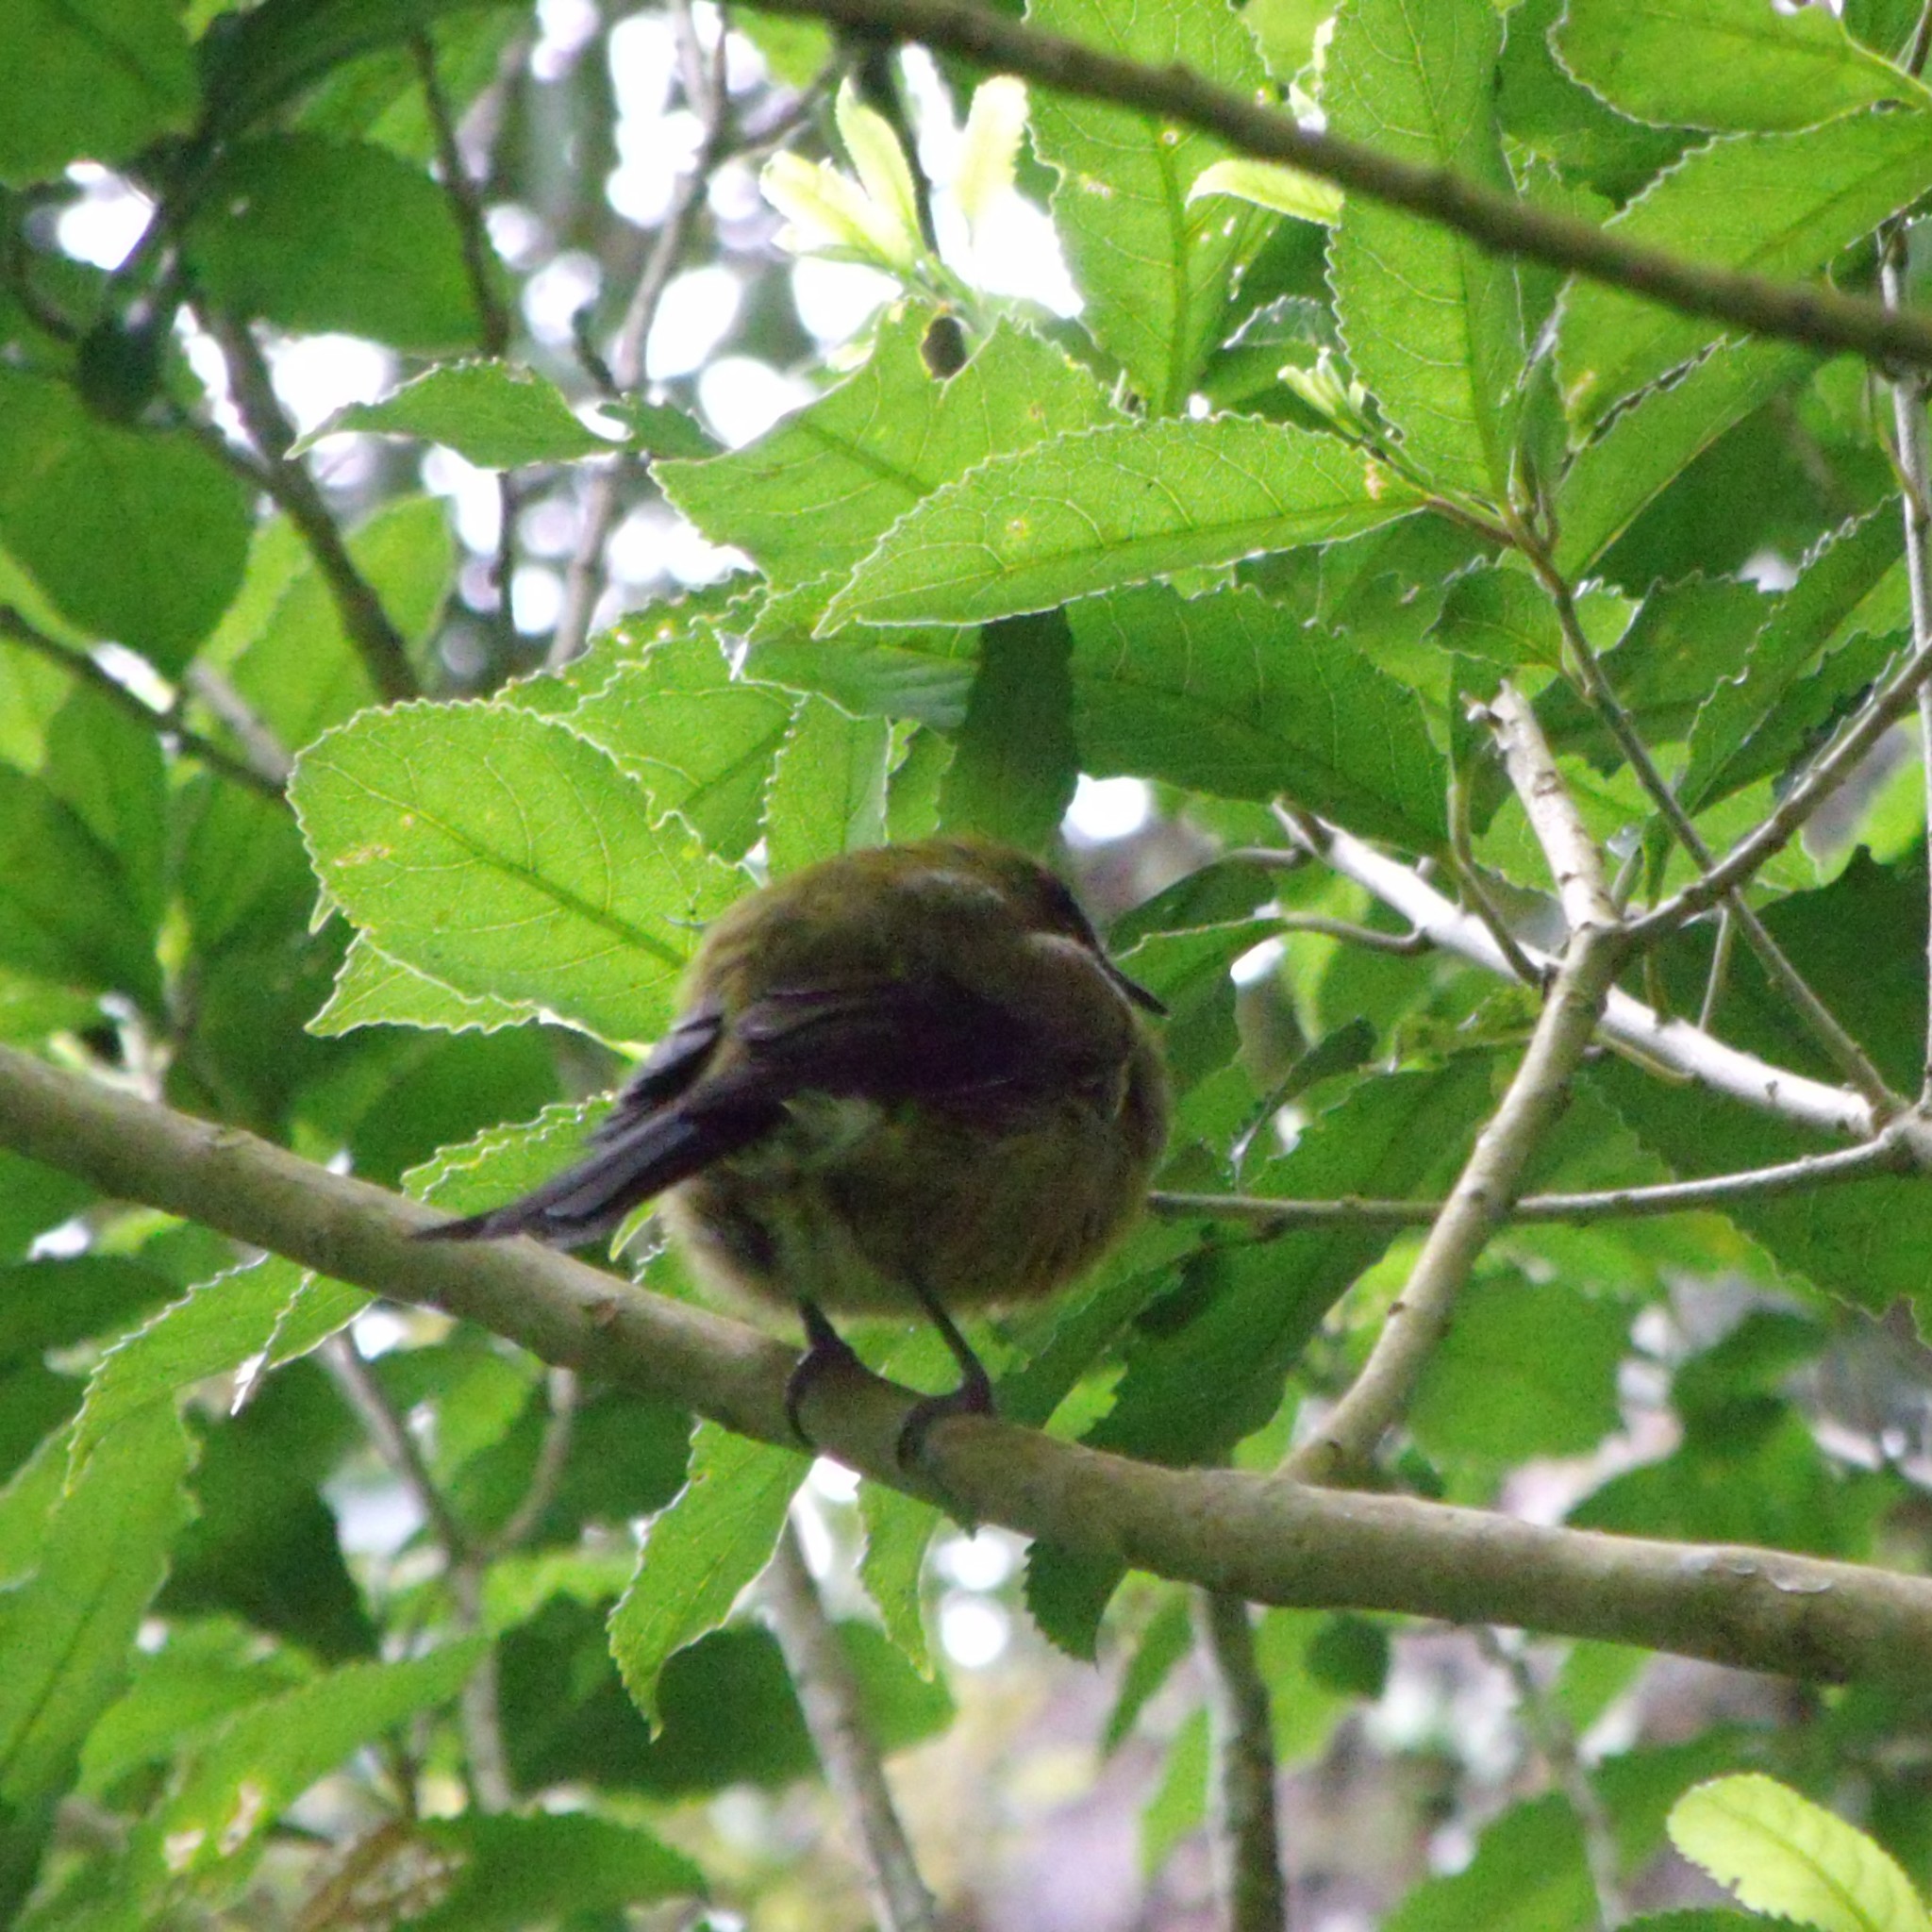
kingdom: Animalia
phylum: Chordata
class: Aves
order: Passeriformes
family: Meliphagidae
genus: Anthornis
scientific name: Anthornis melanura
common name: New zealand bellbird
